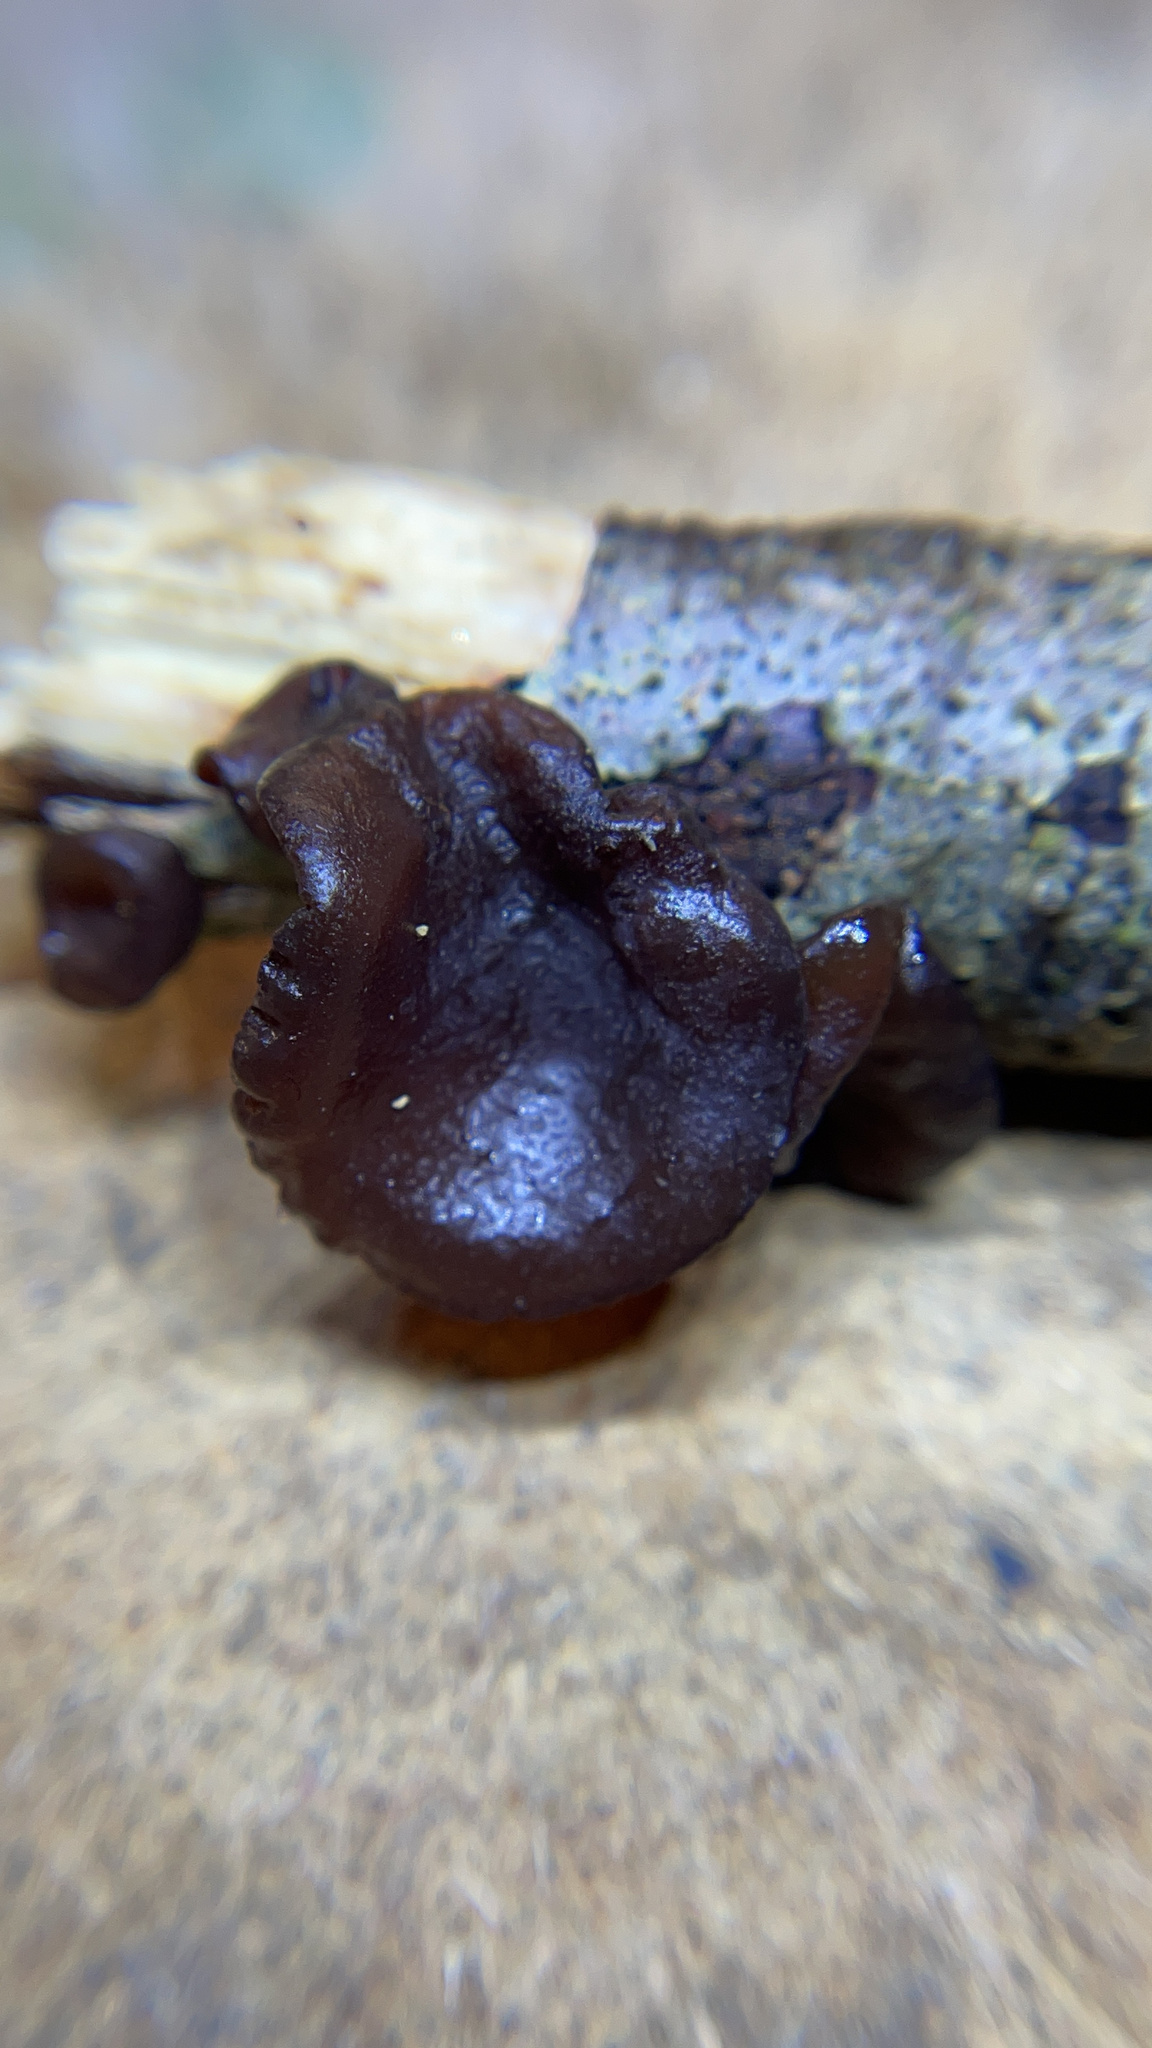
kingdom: Fungi
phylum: Basidiomycota
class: Agaricomycetes
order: Auriculariales
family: Auriculariaceae
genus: Exidia
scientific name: Exidia
